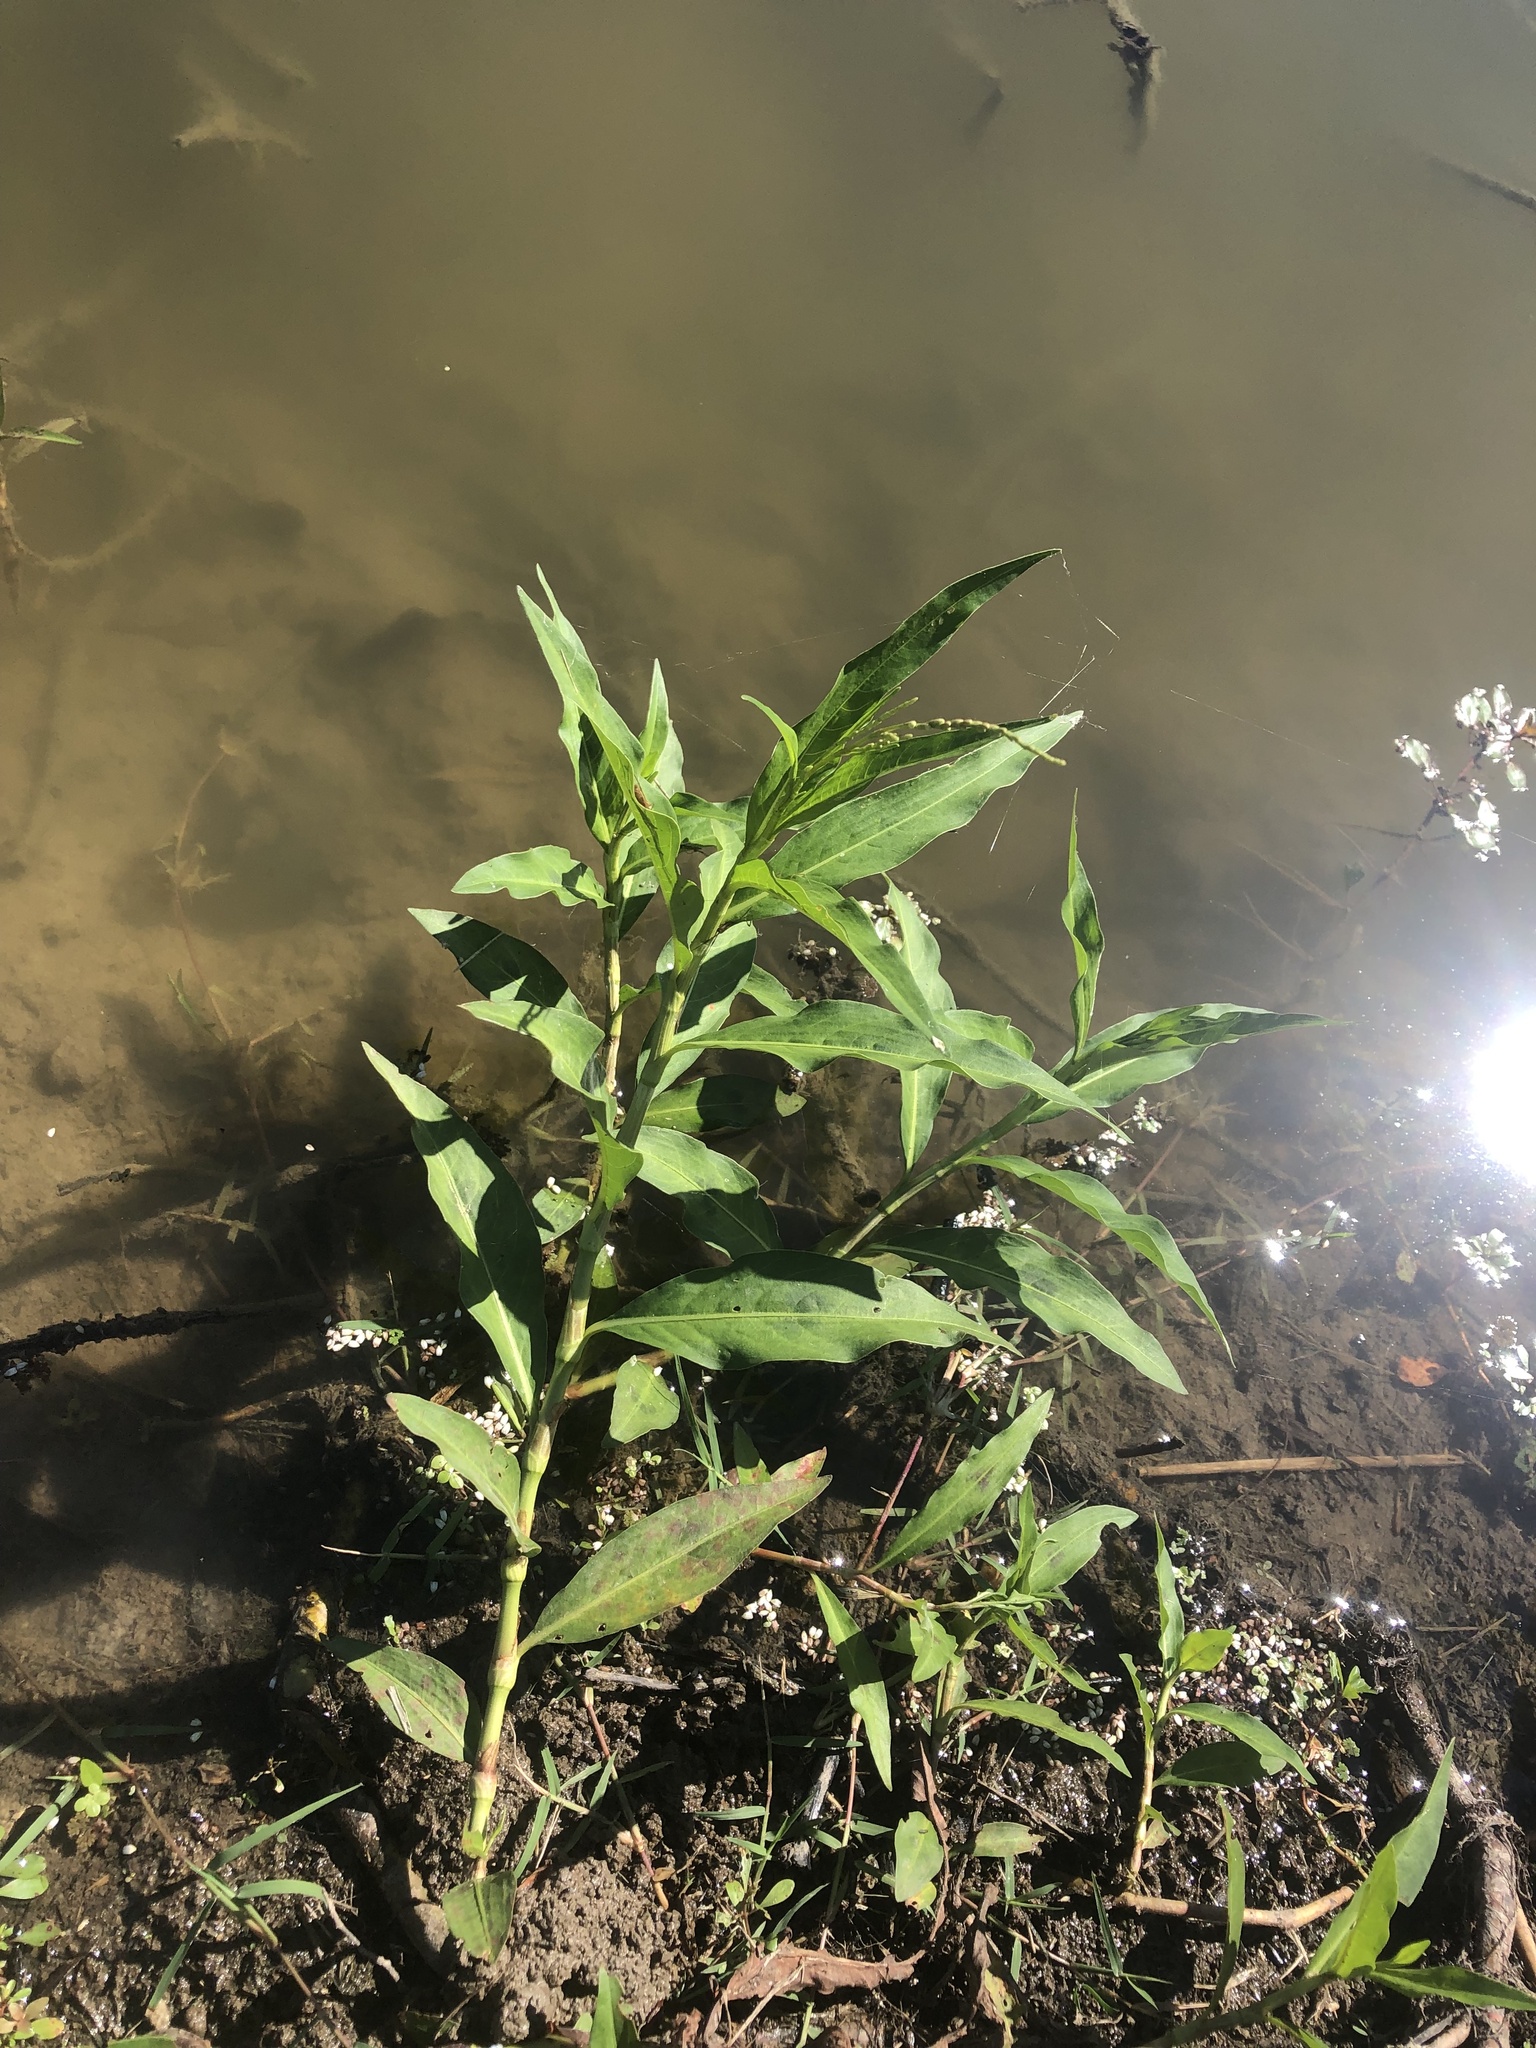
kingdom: Plantae
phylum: Tracheophyta
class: Magnoliopsida
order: Caryophyllales
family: Polygonaceae
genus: Persicaria
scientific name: Persicaria glabra
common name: Denseflower knotweed
